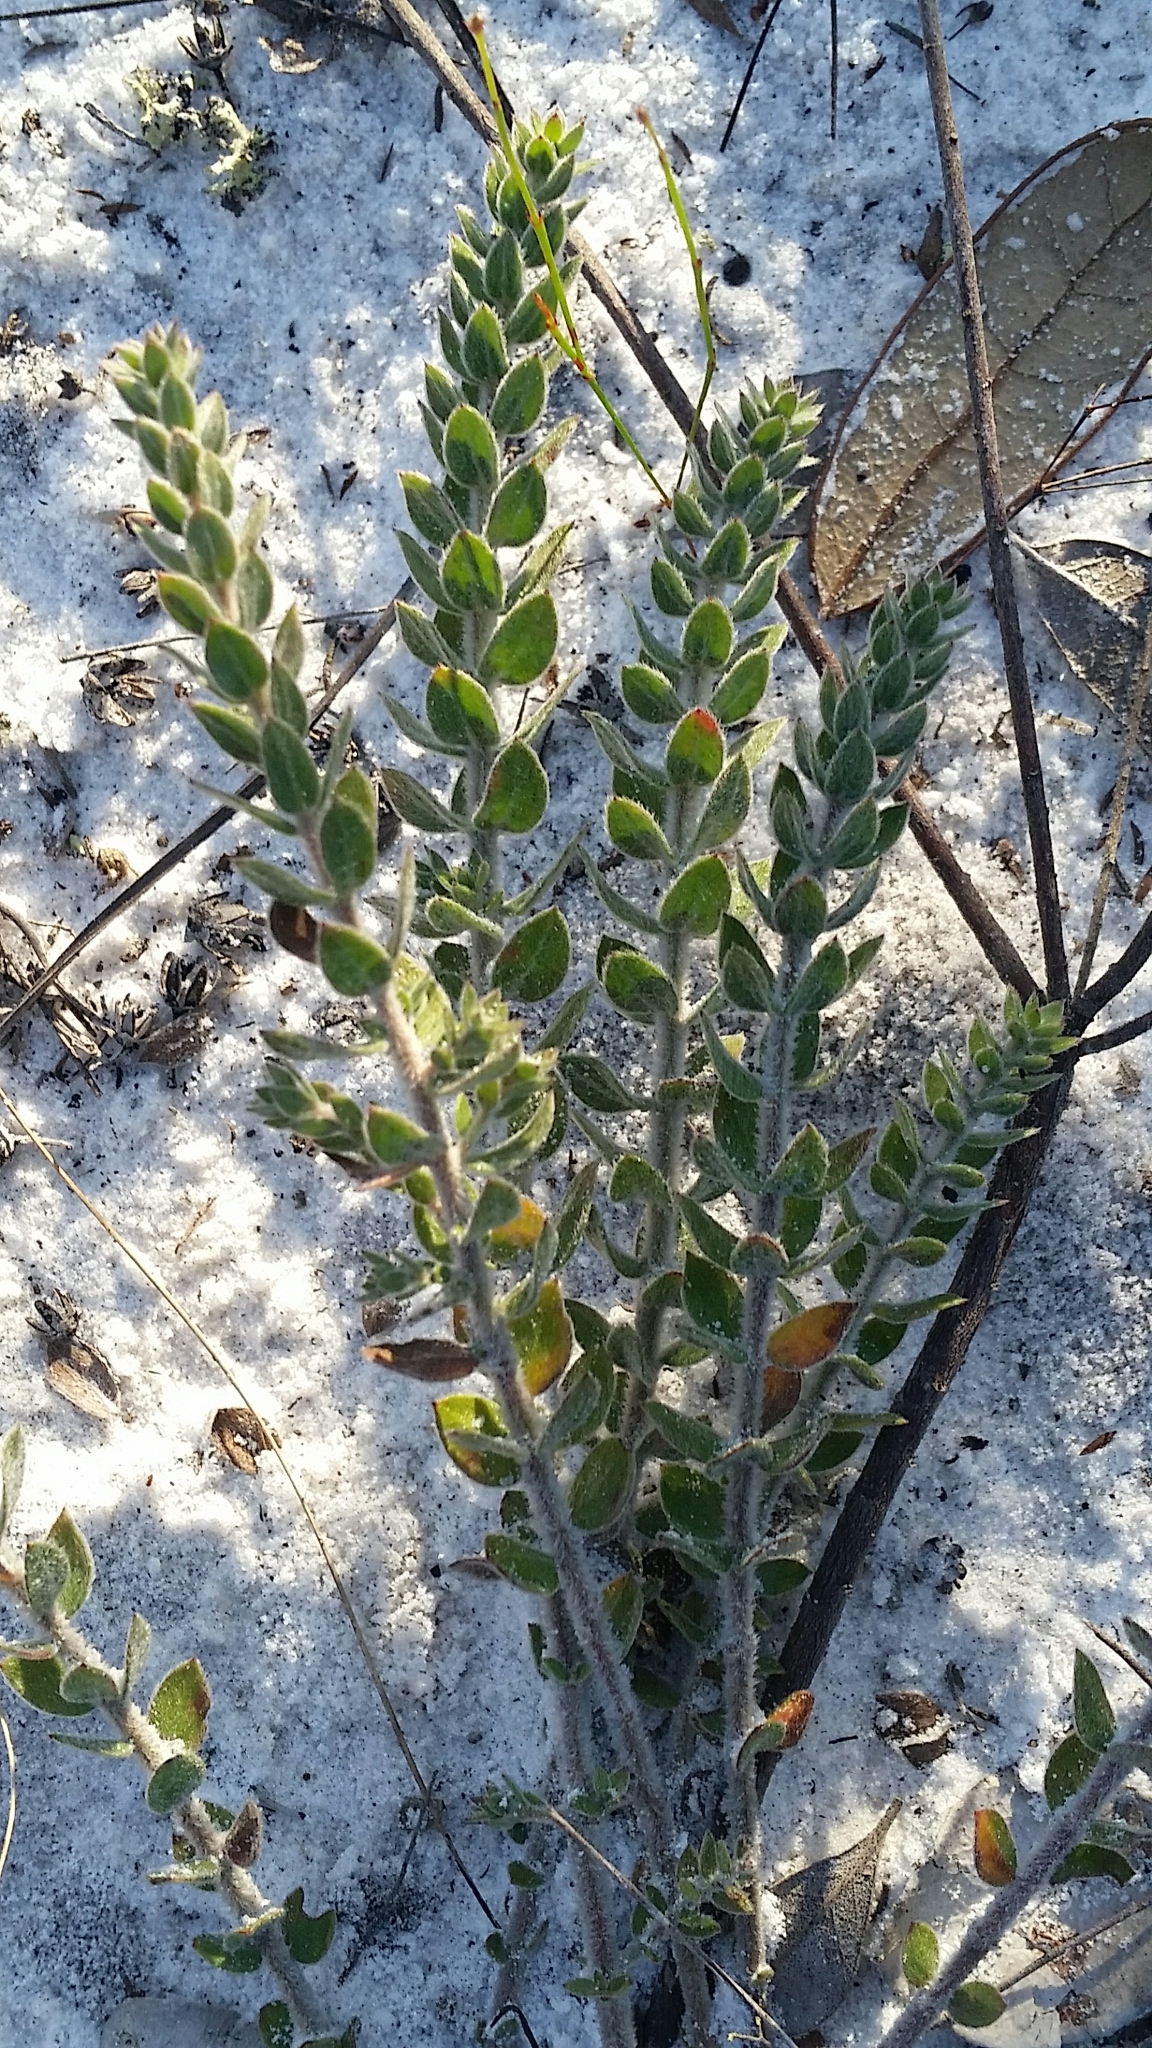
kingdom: Plantae
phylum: Tracheophyta
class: Magnoliopsida
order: Malvales
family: Cistaceae
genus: Lechea
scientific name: Lechea cernua
